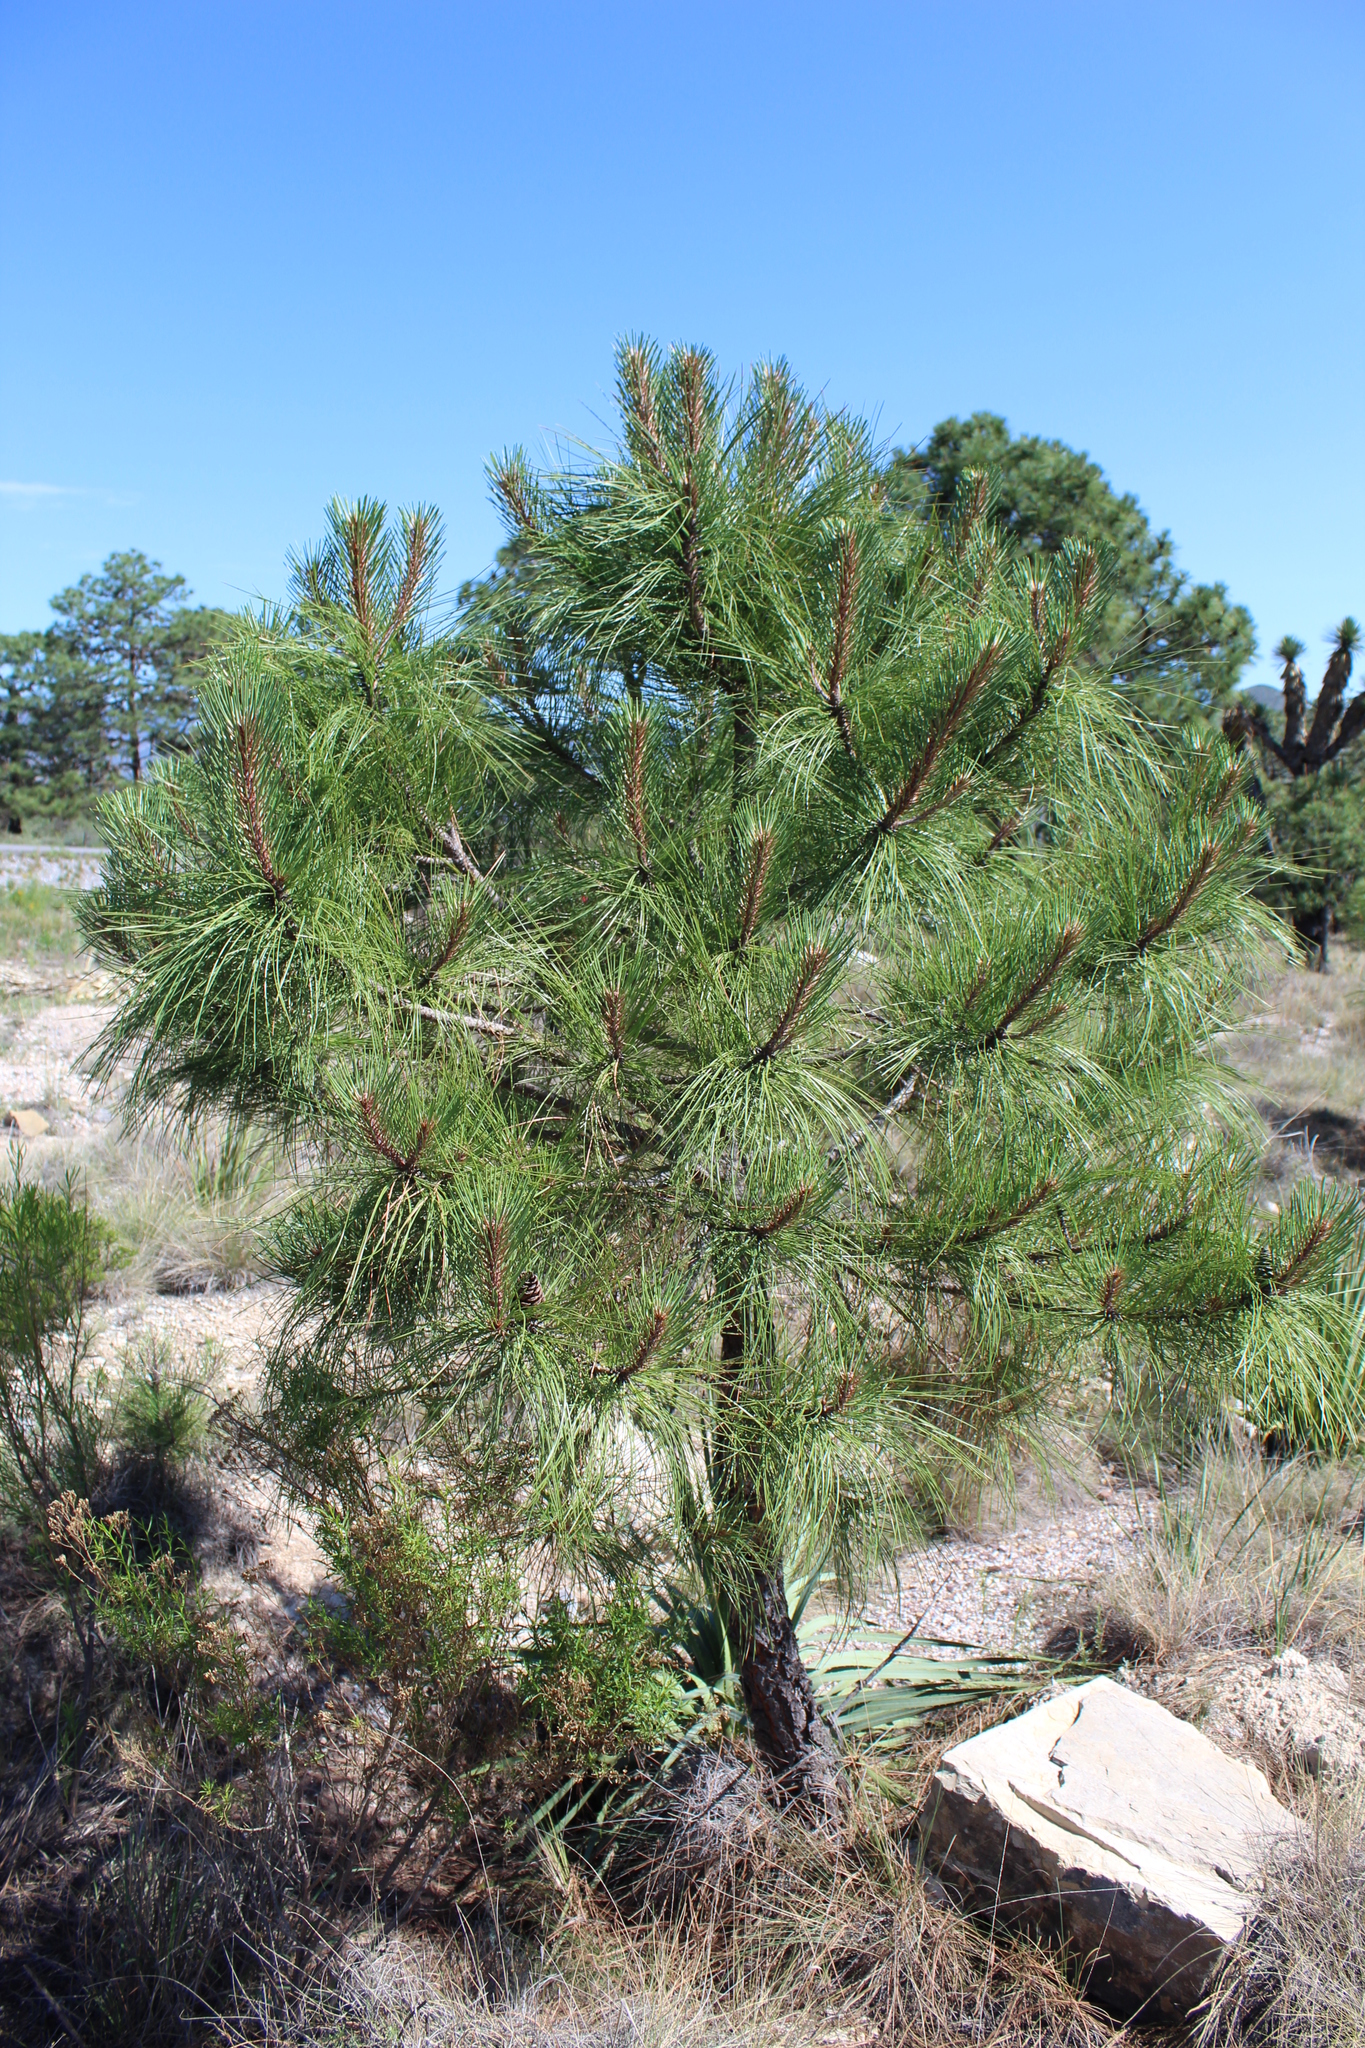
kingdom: Plantae
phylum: Tracheophyta
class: Pinopsida
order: Pinales
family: Pinaceae
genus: Pinus
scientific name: Pinus pseudostrobus
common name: False weymouth pine
